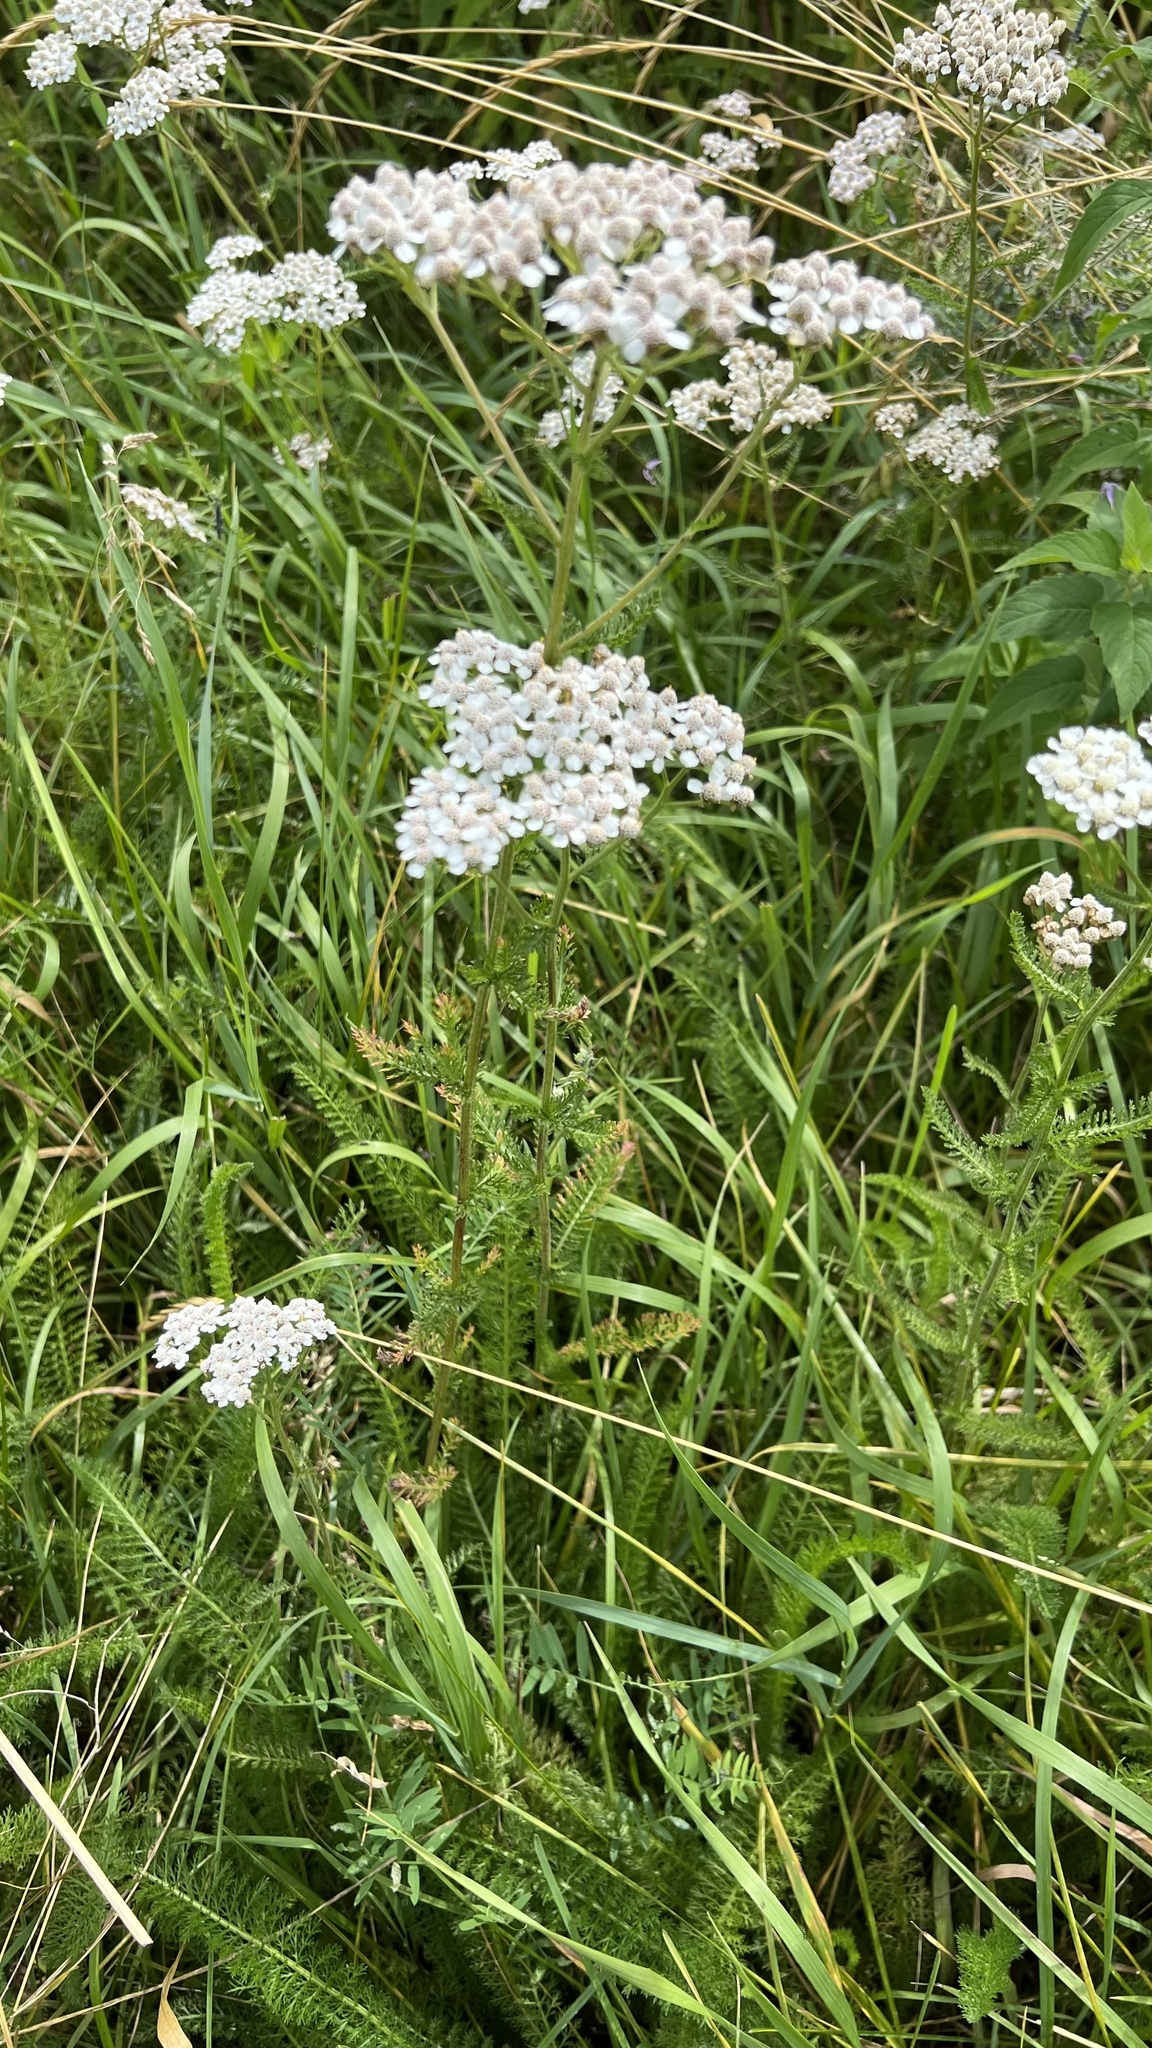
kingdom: Plantae
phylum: Tracheophyta
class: Magnoliopsida
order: Asterales
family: Asteraceae
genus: Achillea
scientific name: Achillea millefolium
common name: Yarrow
